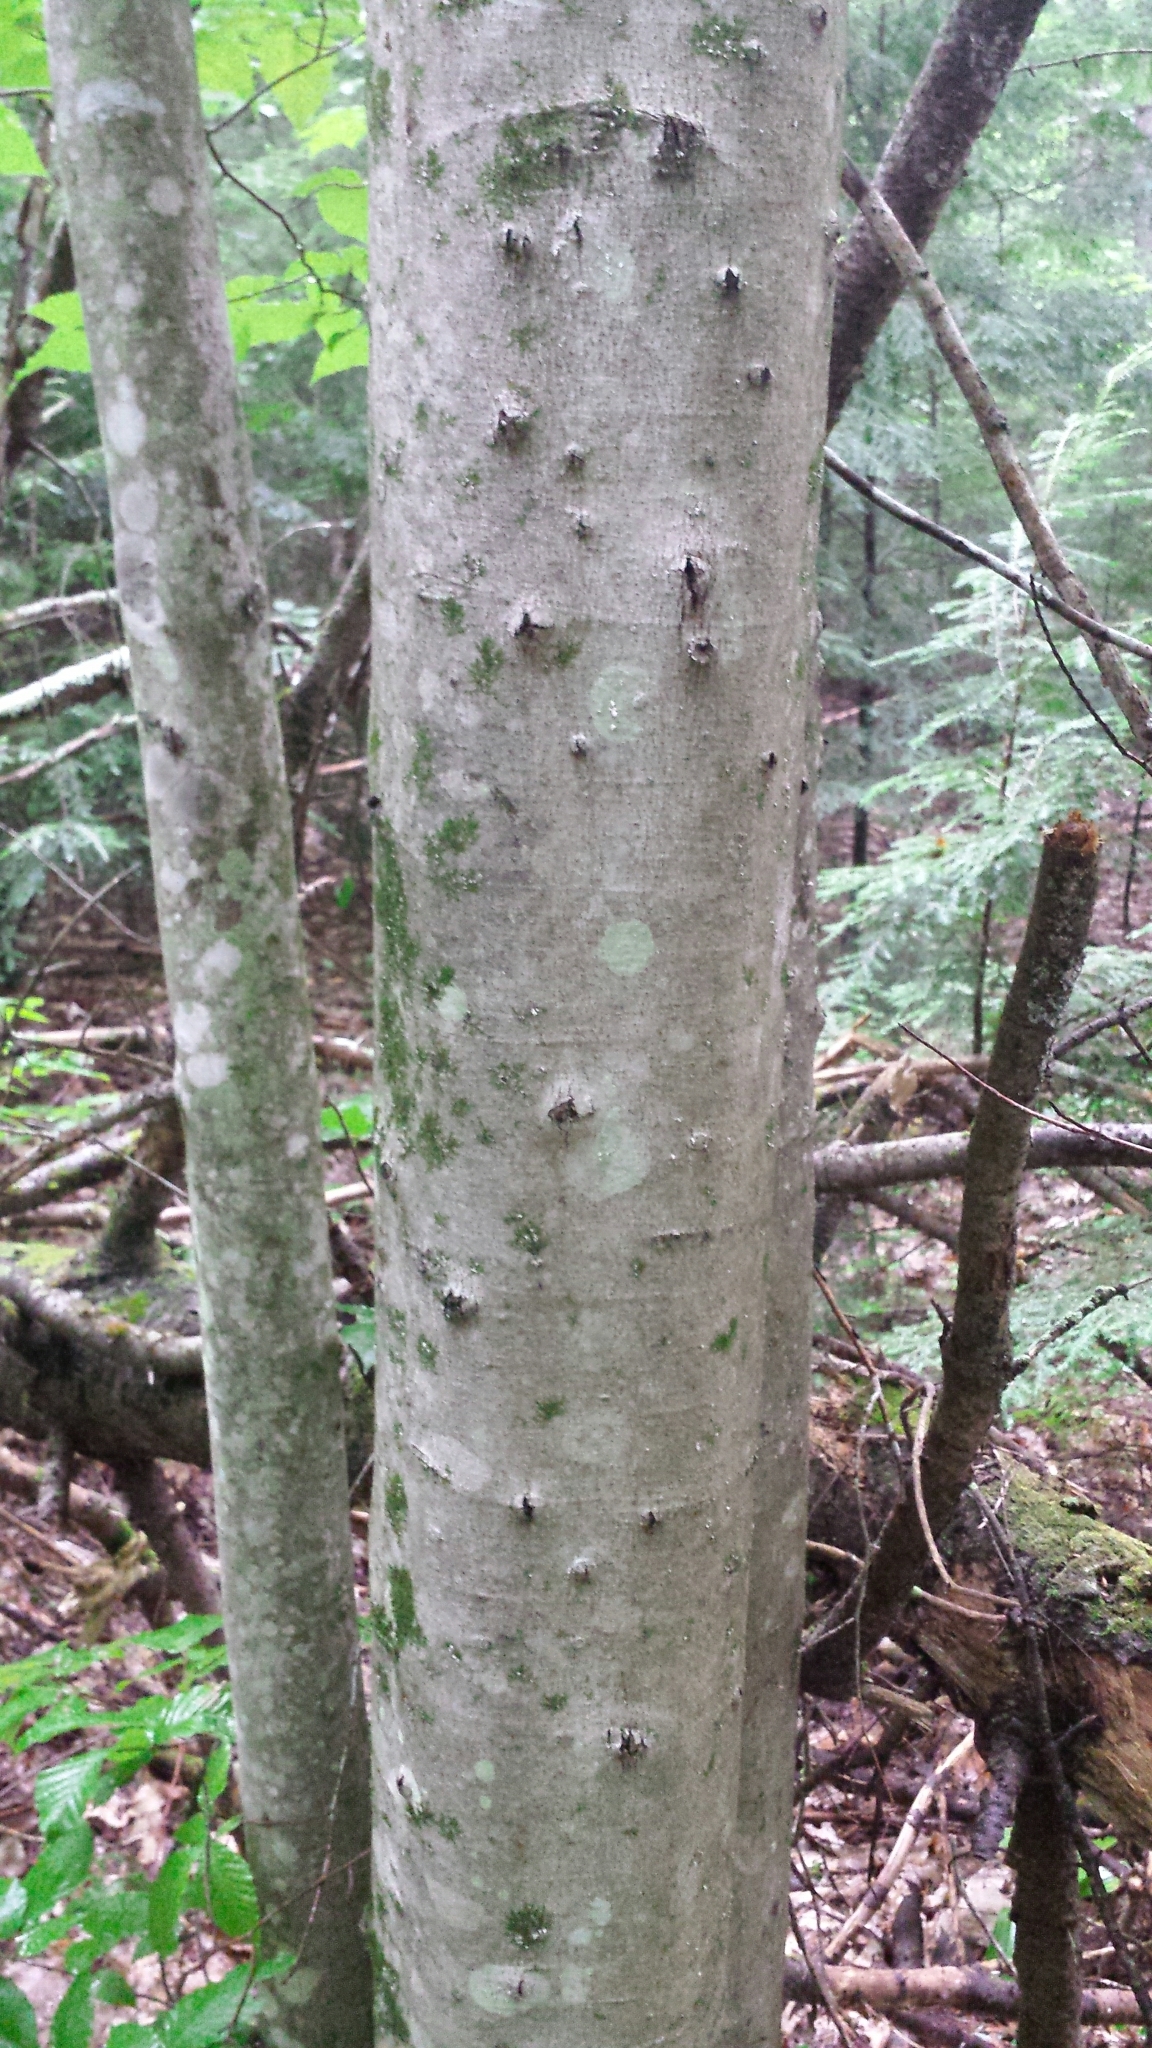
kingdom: Plantae
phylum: Tracheophyta
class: Magnoliopsida
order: Fagales
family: Fagaceae
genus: Fagus
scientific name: Fagus grandifolia
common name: American beech
